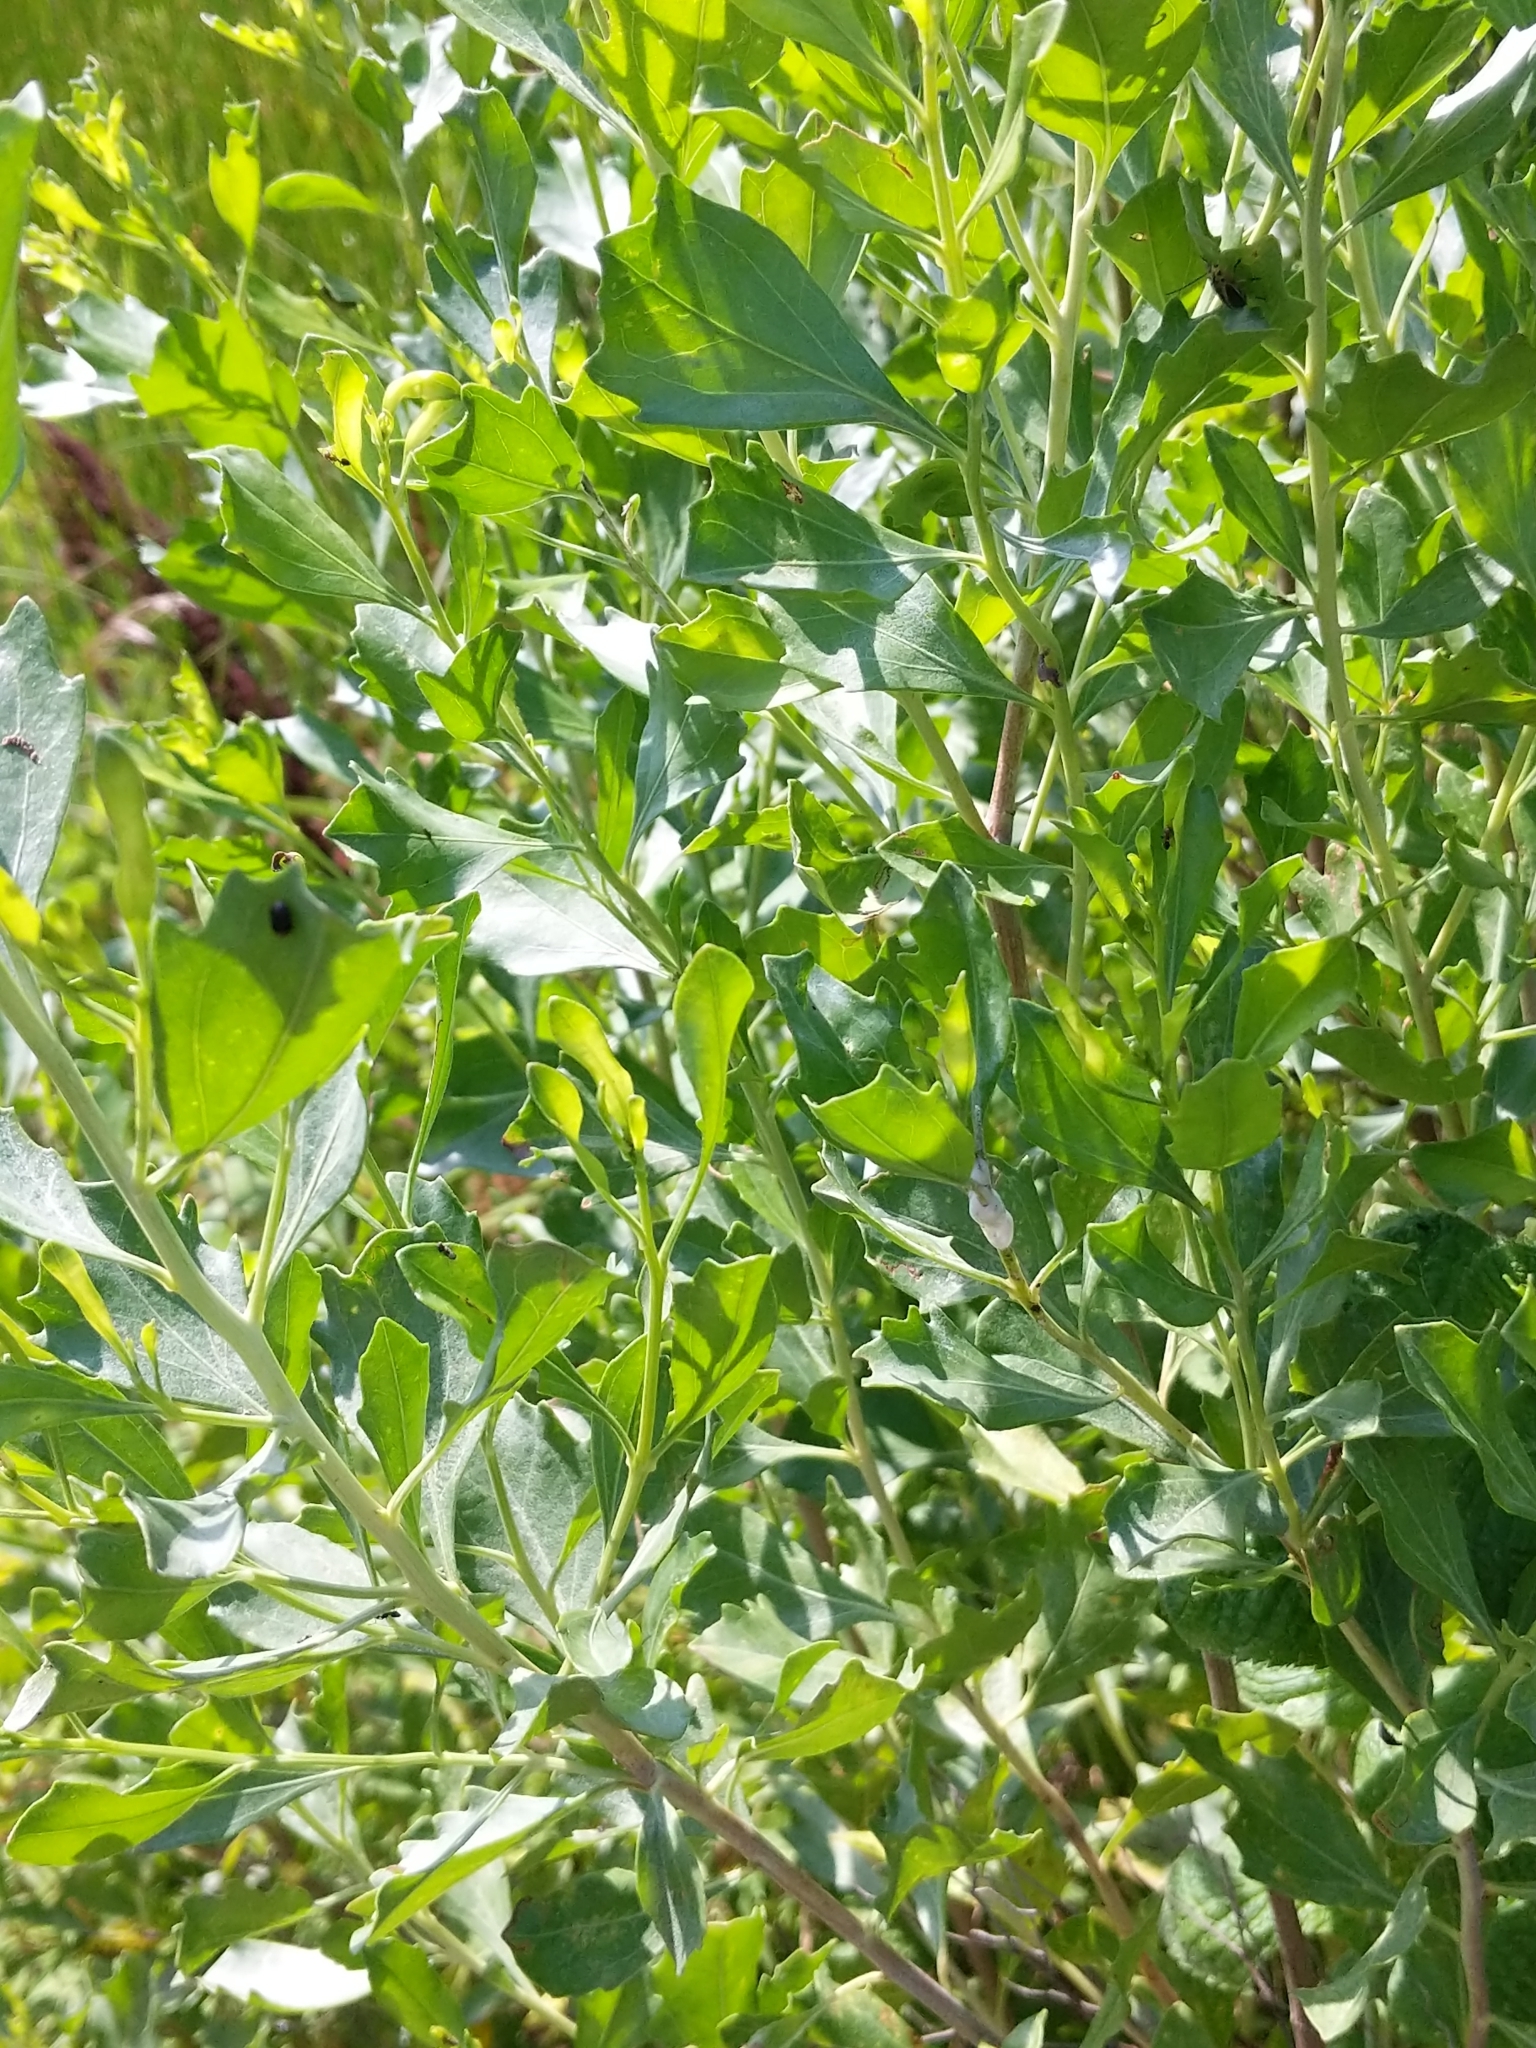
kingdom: Plantae
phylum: Tracheophyta
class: Magnoliopsida
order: Asterales
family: Asteraceae
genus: Baccharis
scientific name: Baccharis halimifolia
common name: Eastern baccharis
